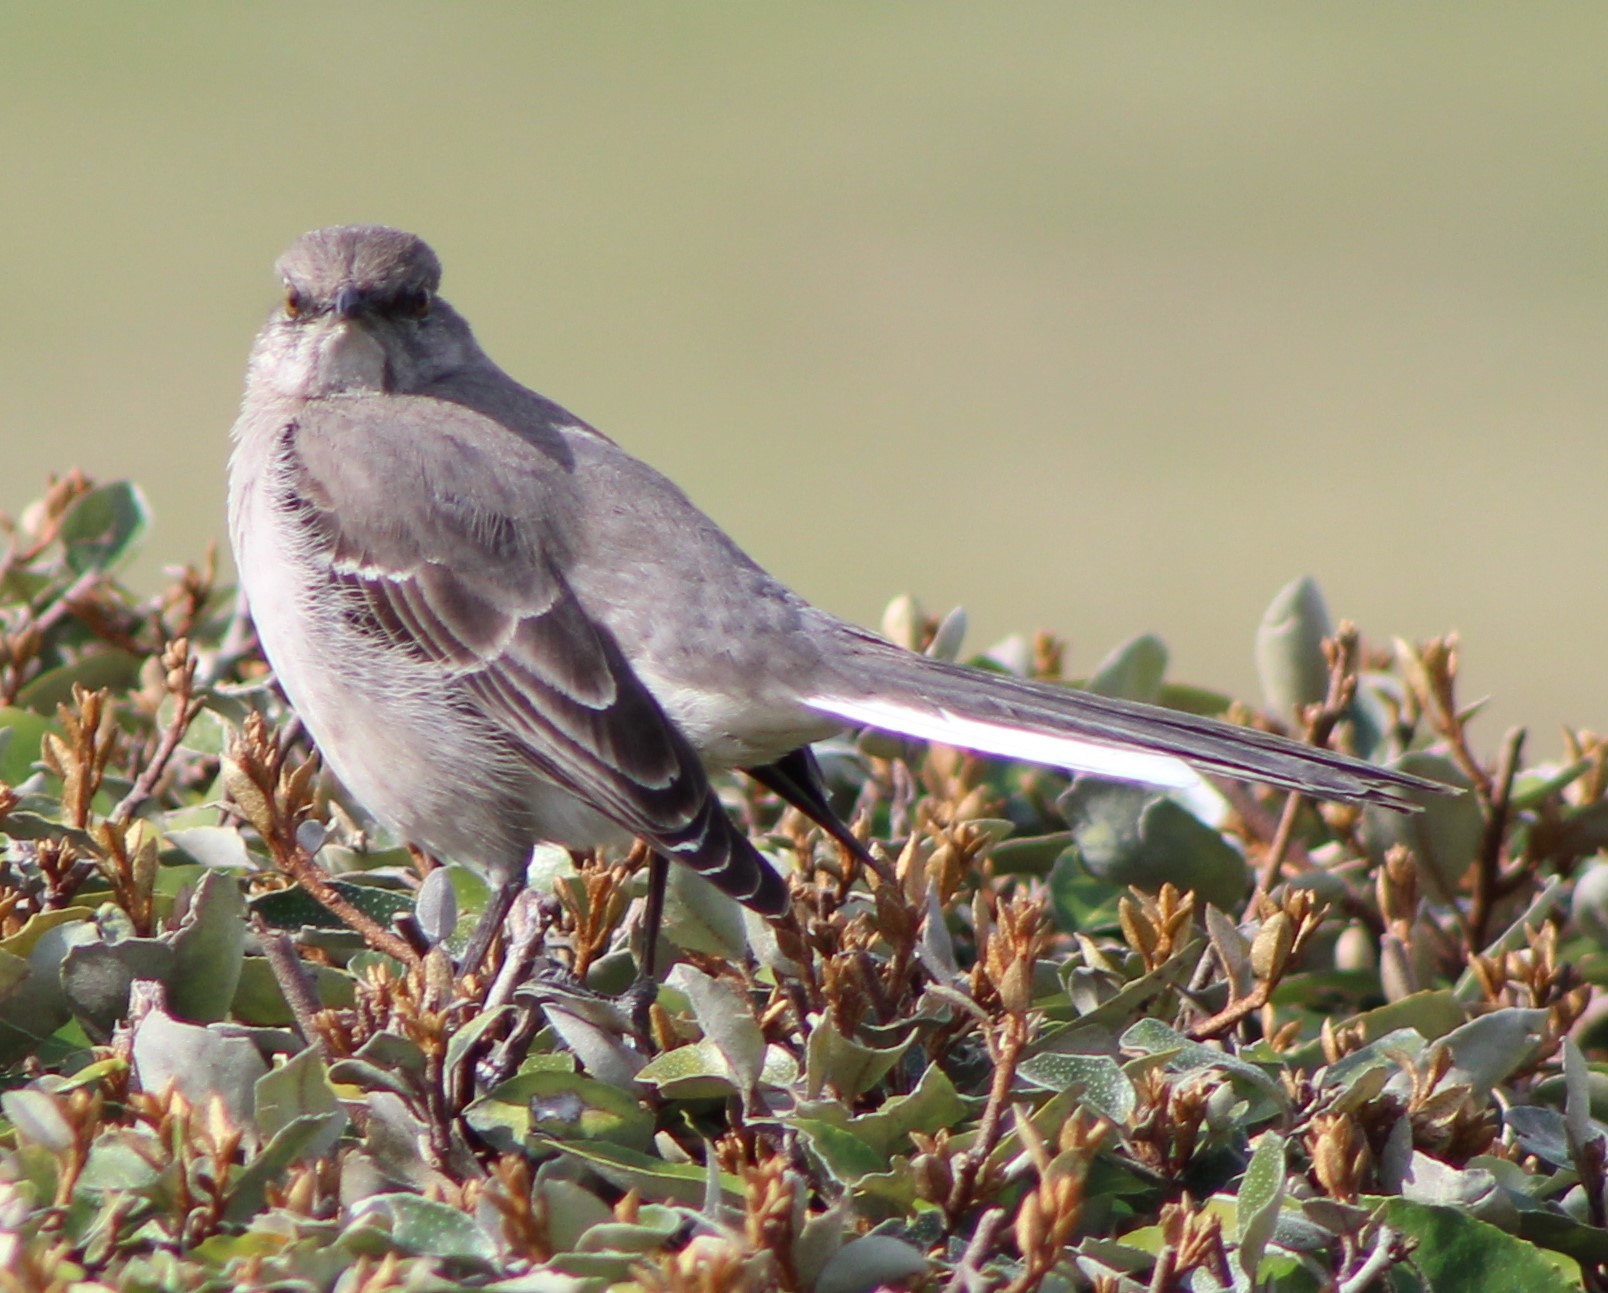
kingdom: Animalia
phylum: Chordata
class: Aves
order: Passeriformes
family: Mimidae
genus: Mimus
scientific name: Mimus polyglottos
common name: Northern mockingbird
